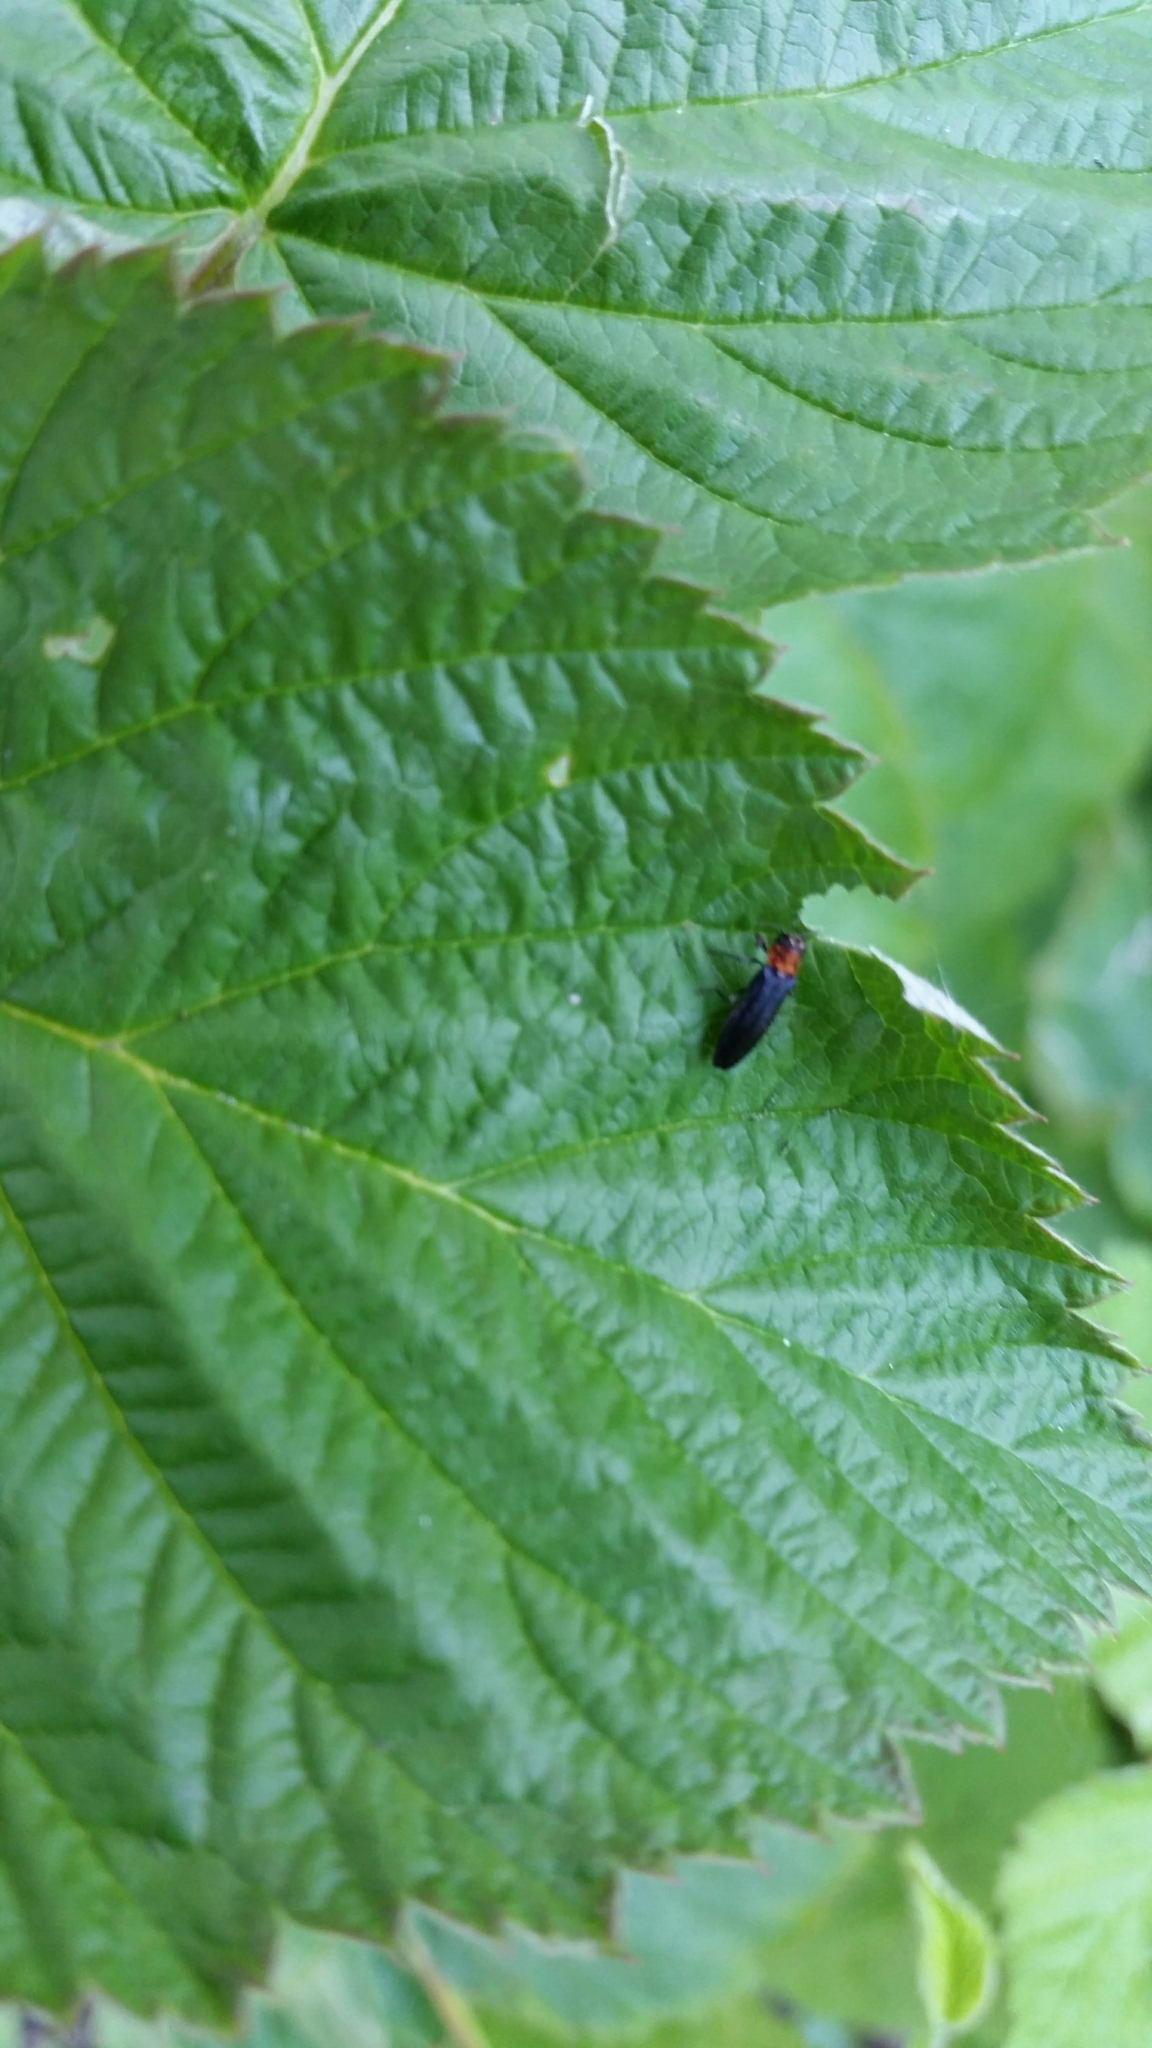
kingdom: Animalia
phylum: Arthropoda
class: Insecta
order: Coleoptera
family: Buprestidae
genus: Agrilus
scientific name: Agrilus ruficollis
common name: Red-necked cane borer beetle
